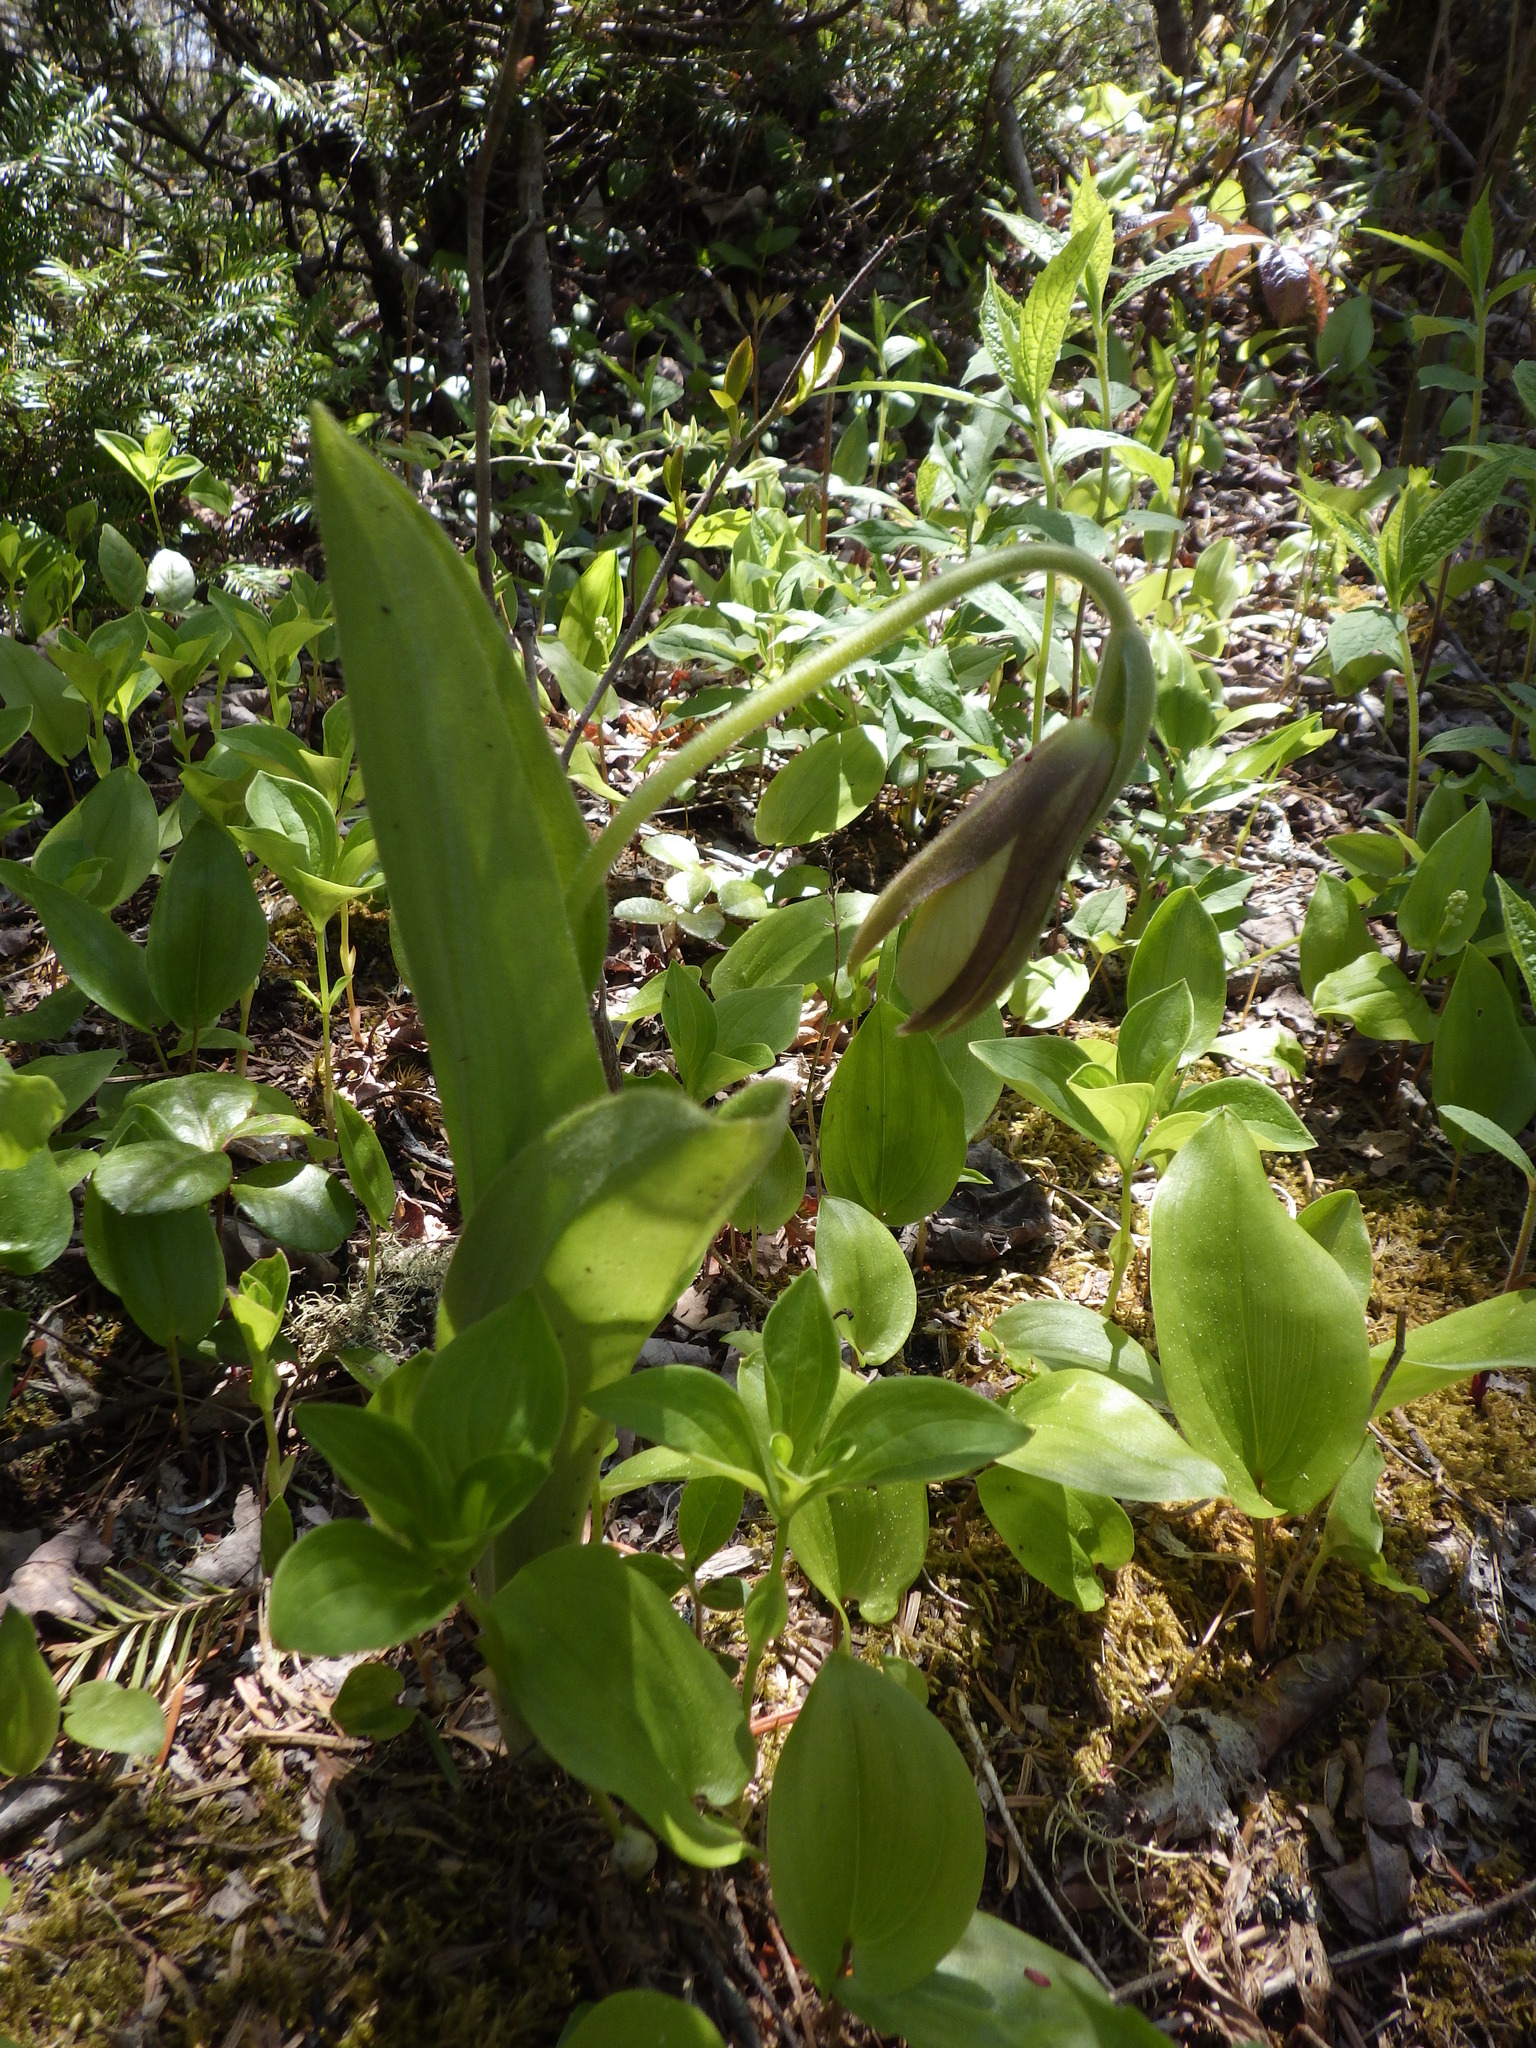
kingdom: Plantae
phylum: Tracheophyta
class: Liliopsida
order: Asparagales
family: Orchidaceae
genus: Cypripedium
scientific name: Cypripedium acaule
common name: Pink lady's-slipper
